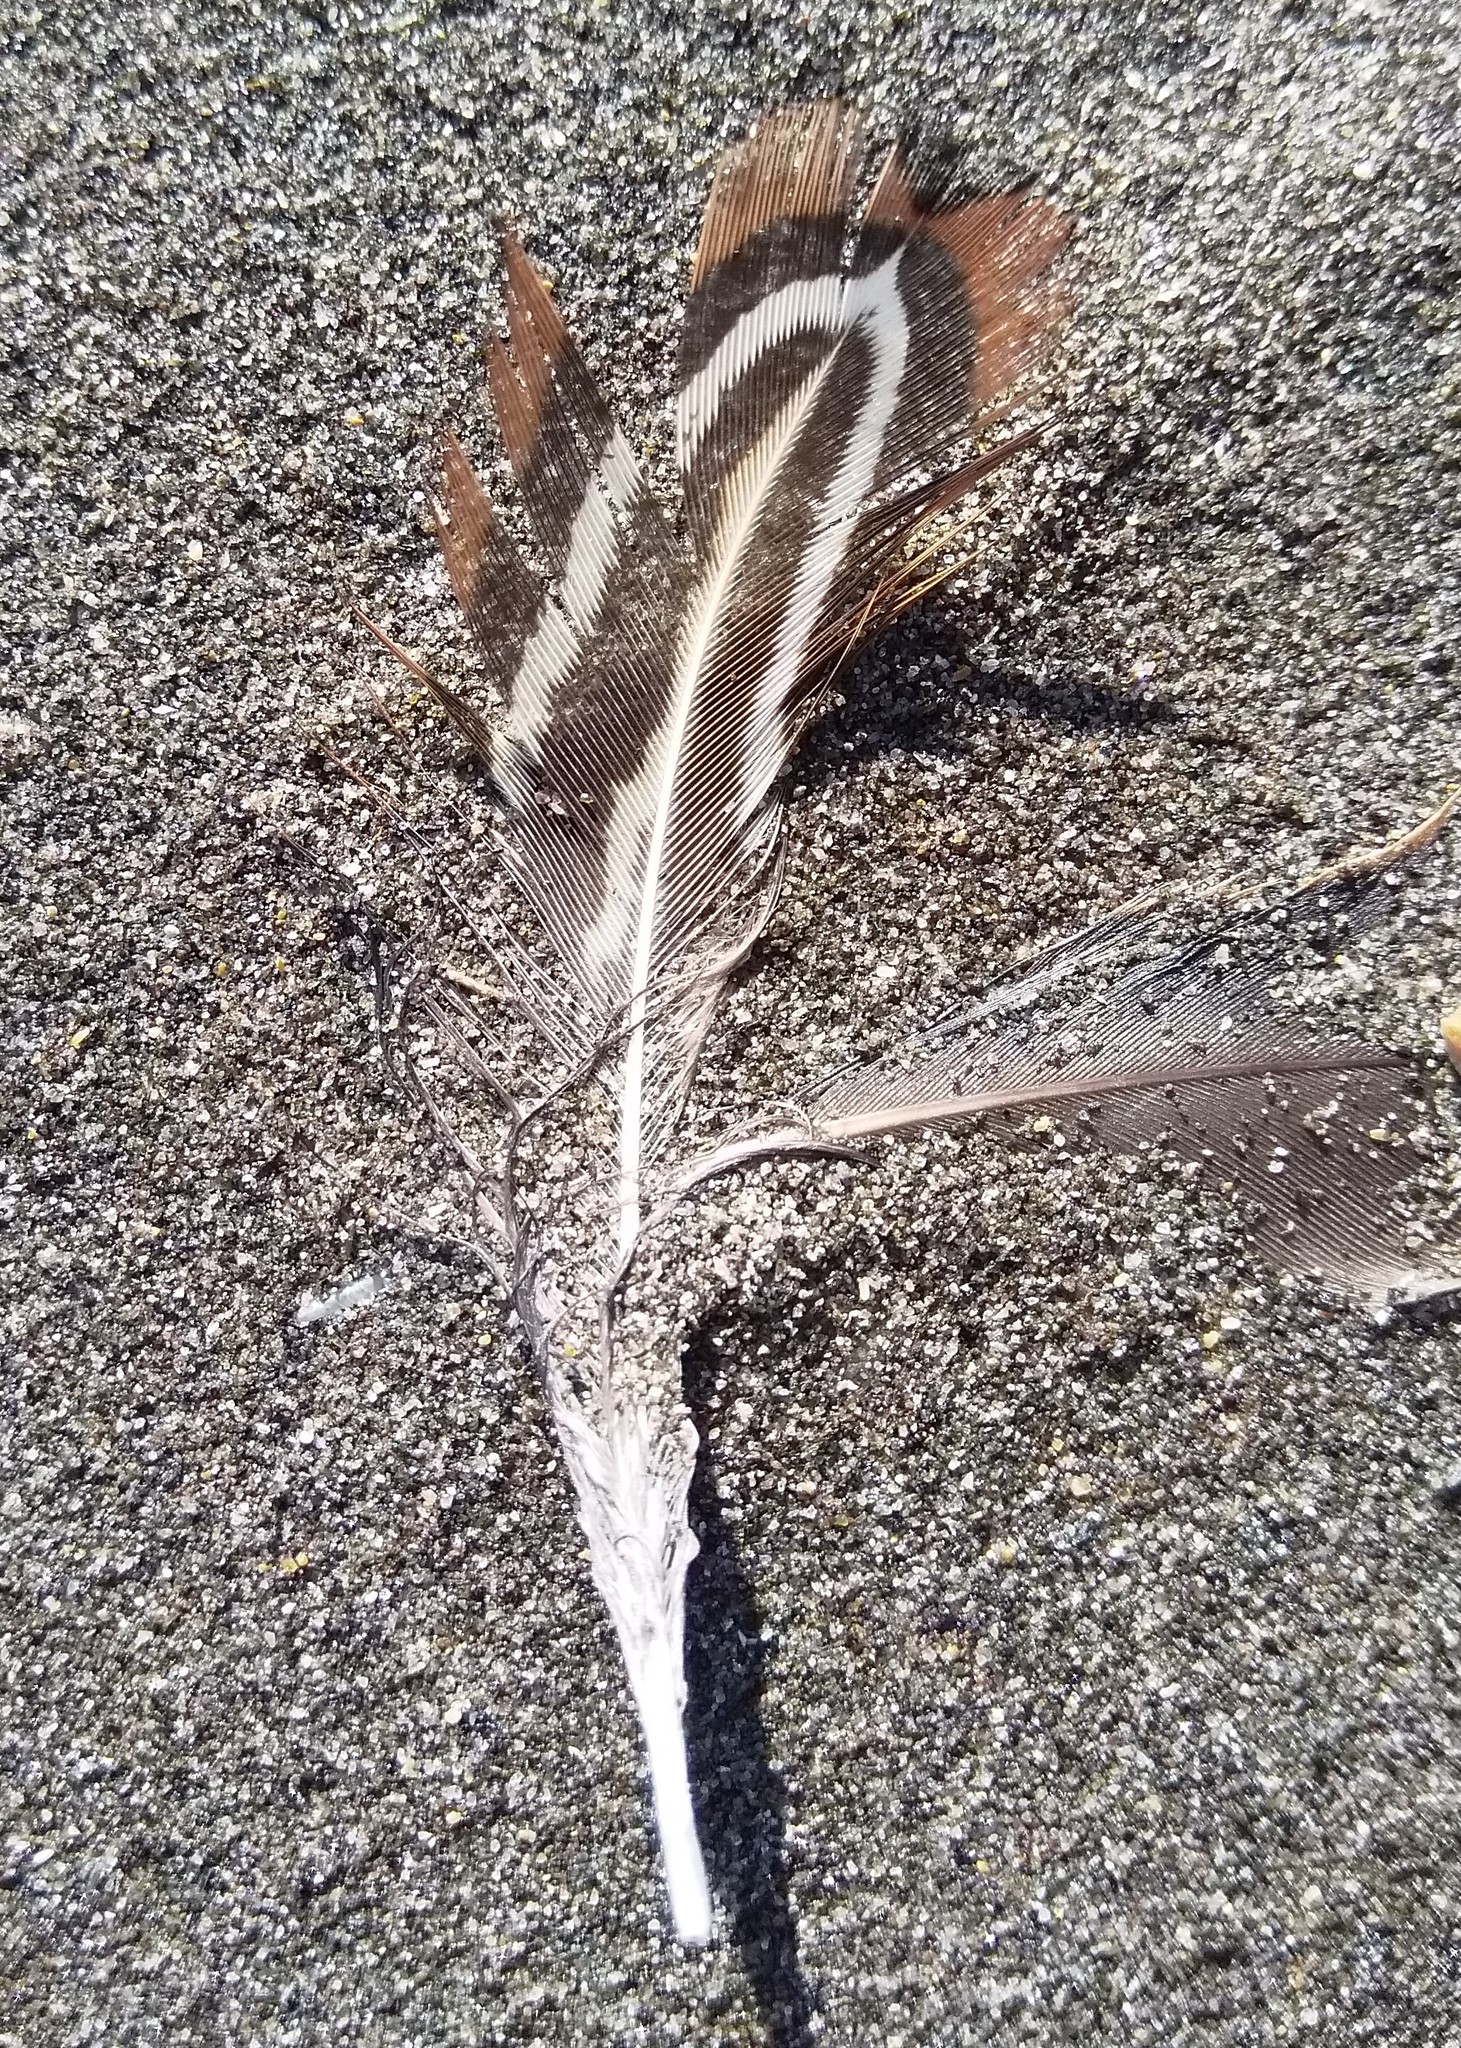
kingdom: Animalia
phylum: Chordata
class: Aves
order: Galliformes
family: Phasianidae
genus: Phasianus
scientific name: Phasianus colchicus
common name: Common pheasant
